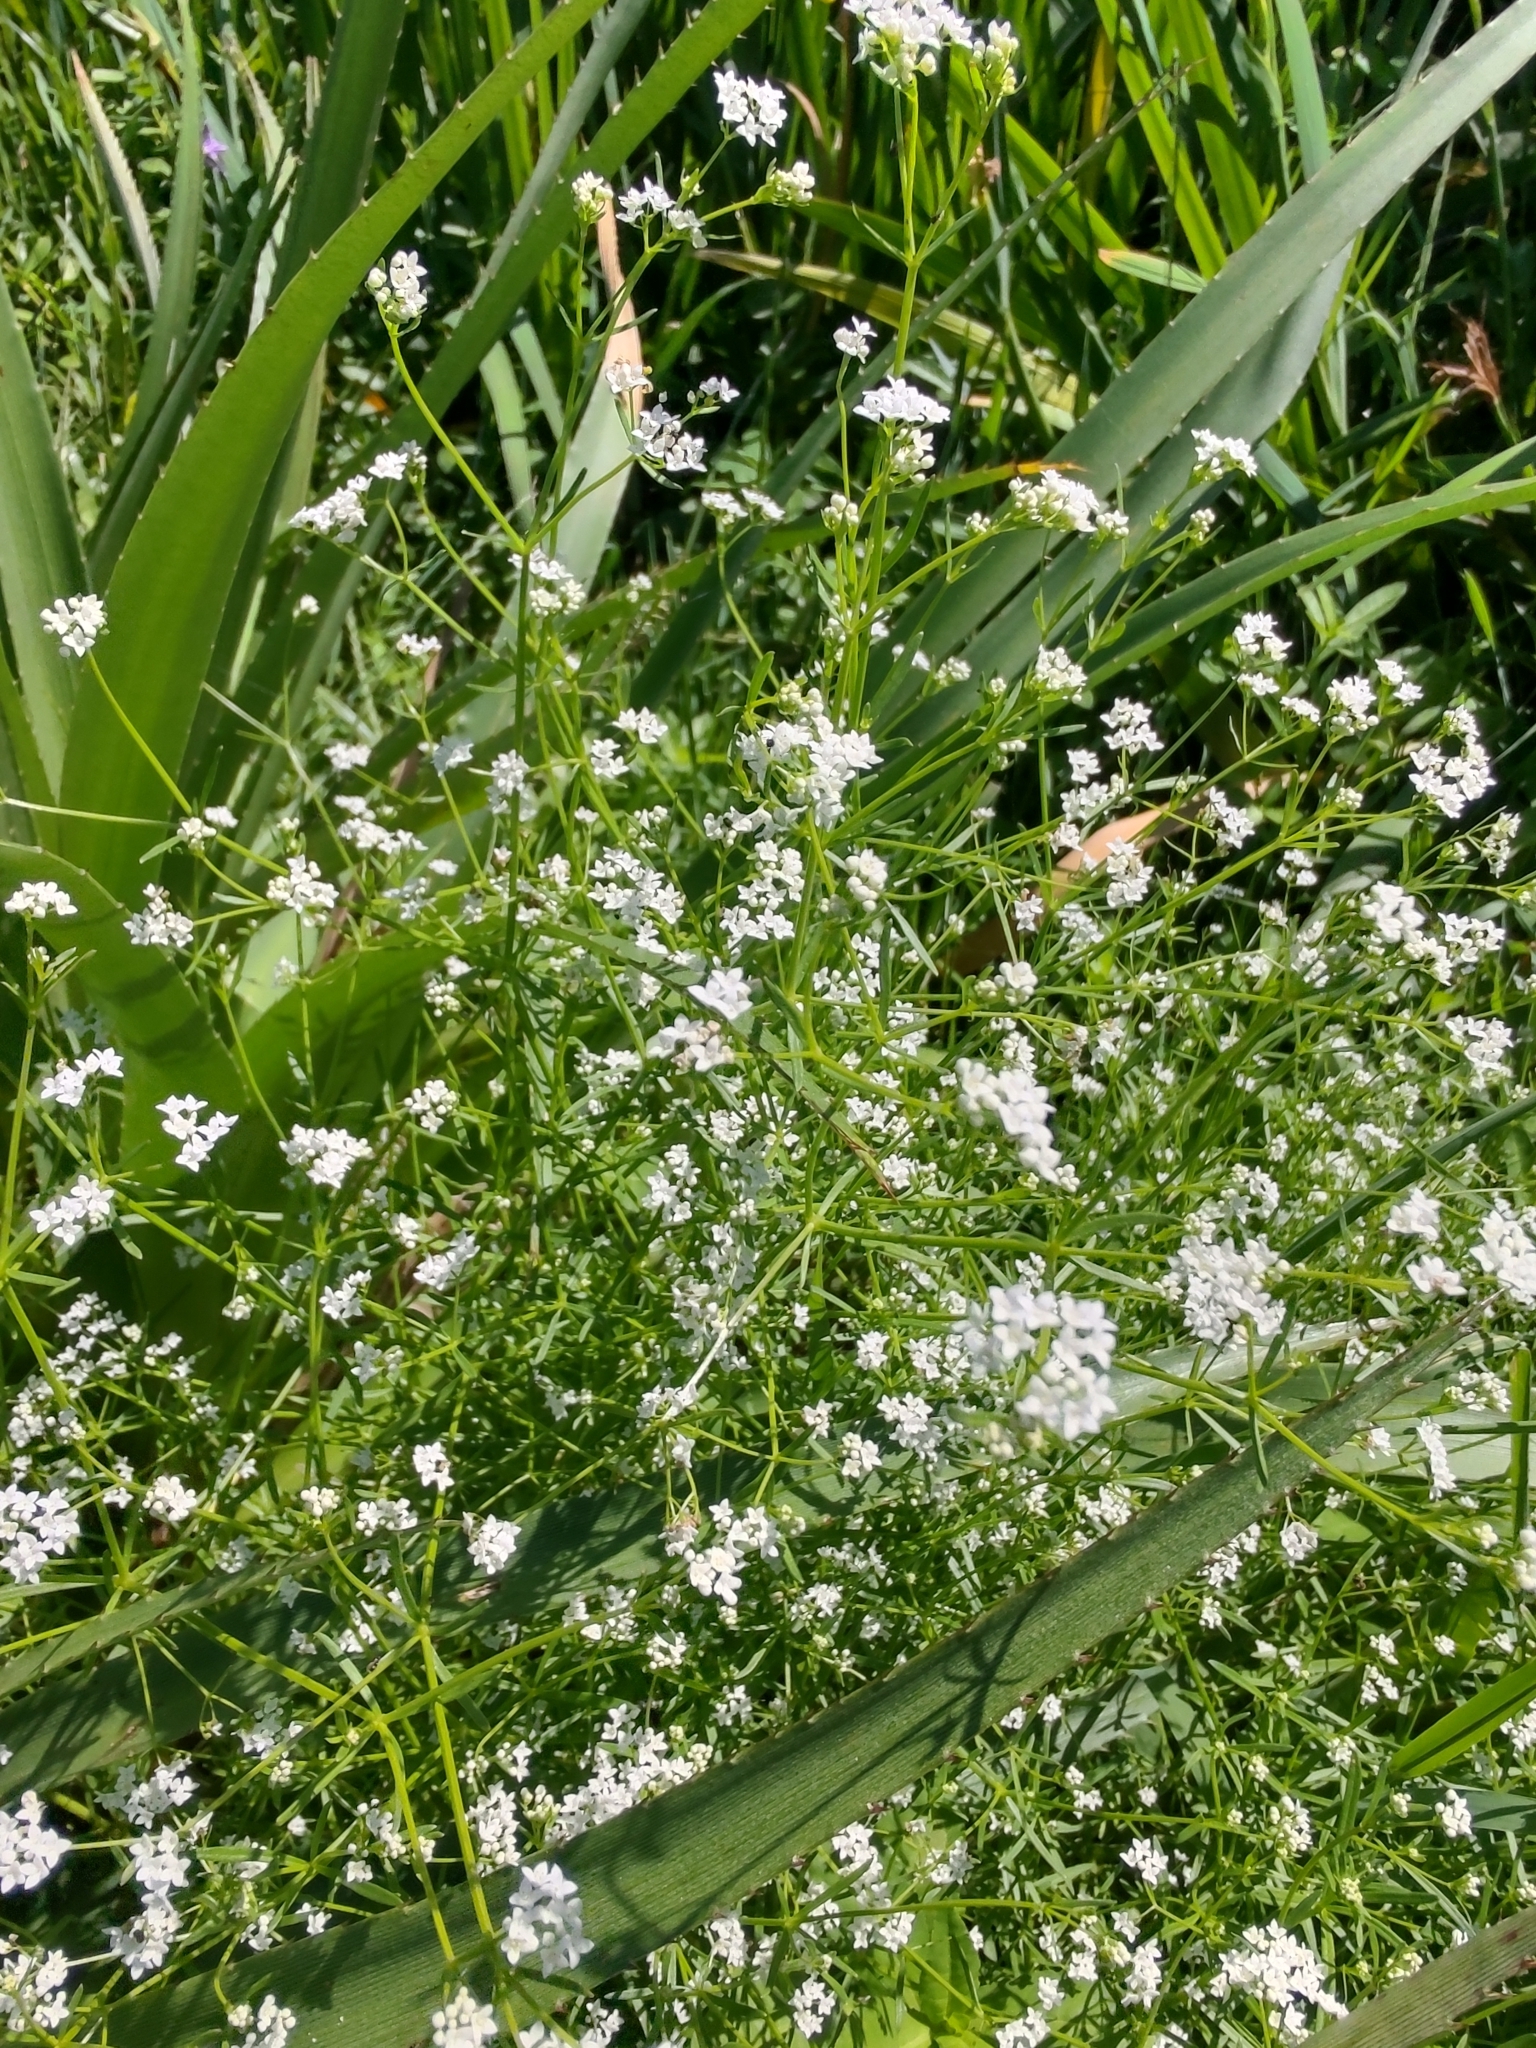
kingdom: Plantae
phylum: Tracheophyta
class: Magnoliopsida
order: Gentianales
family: Rubiaceae
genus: Galium
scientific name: Galium palustre
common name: Common marsh-bedstraw
